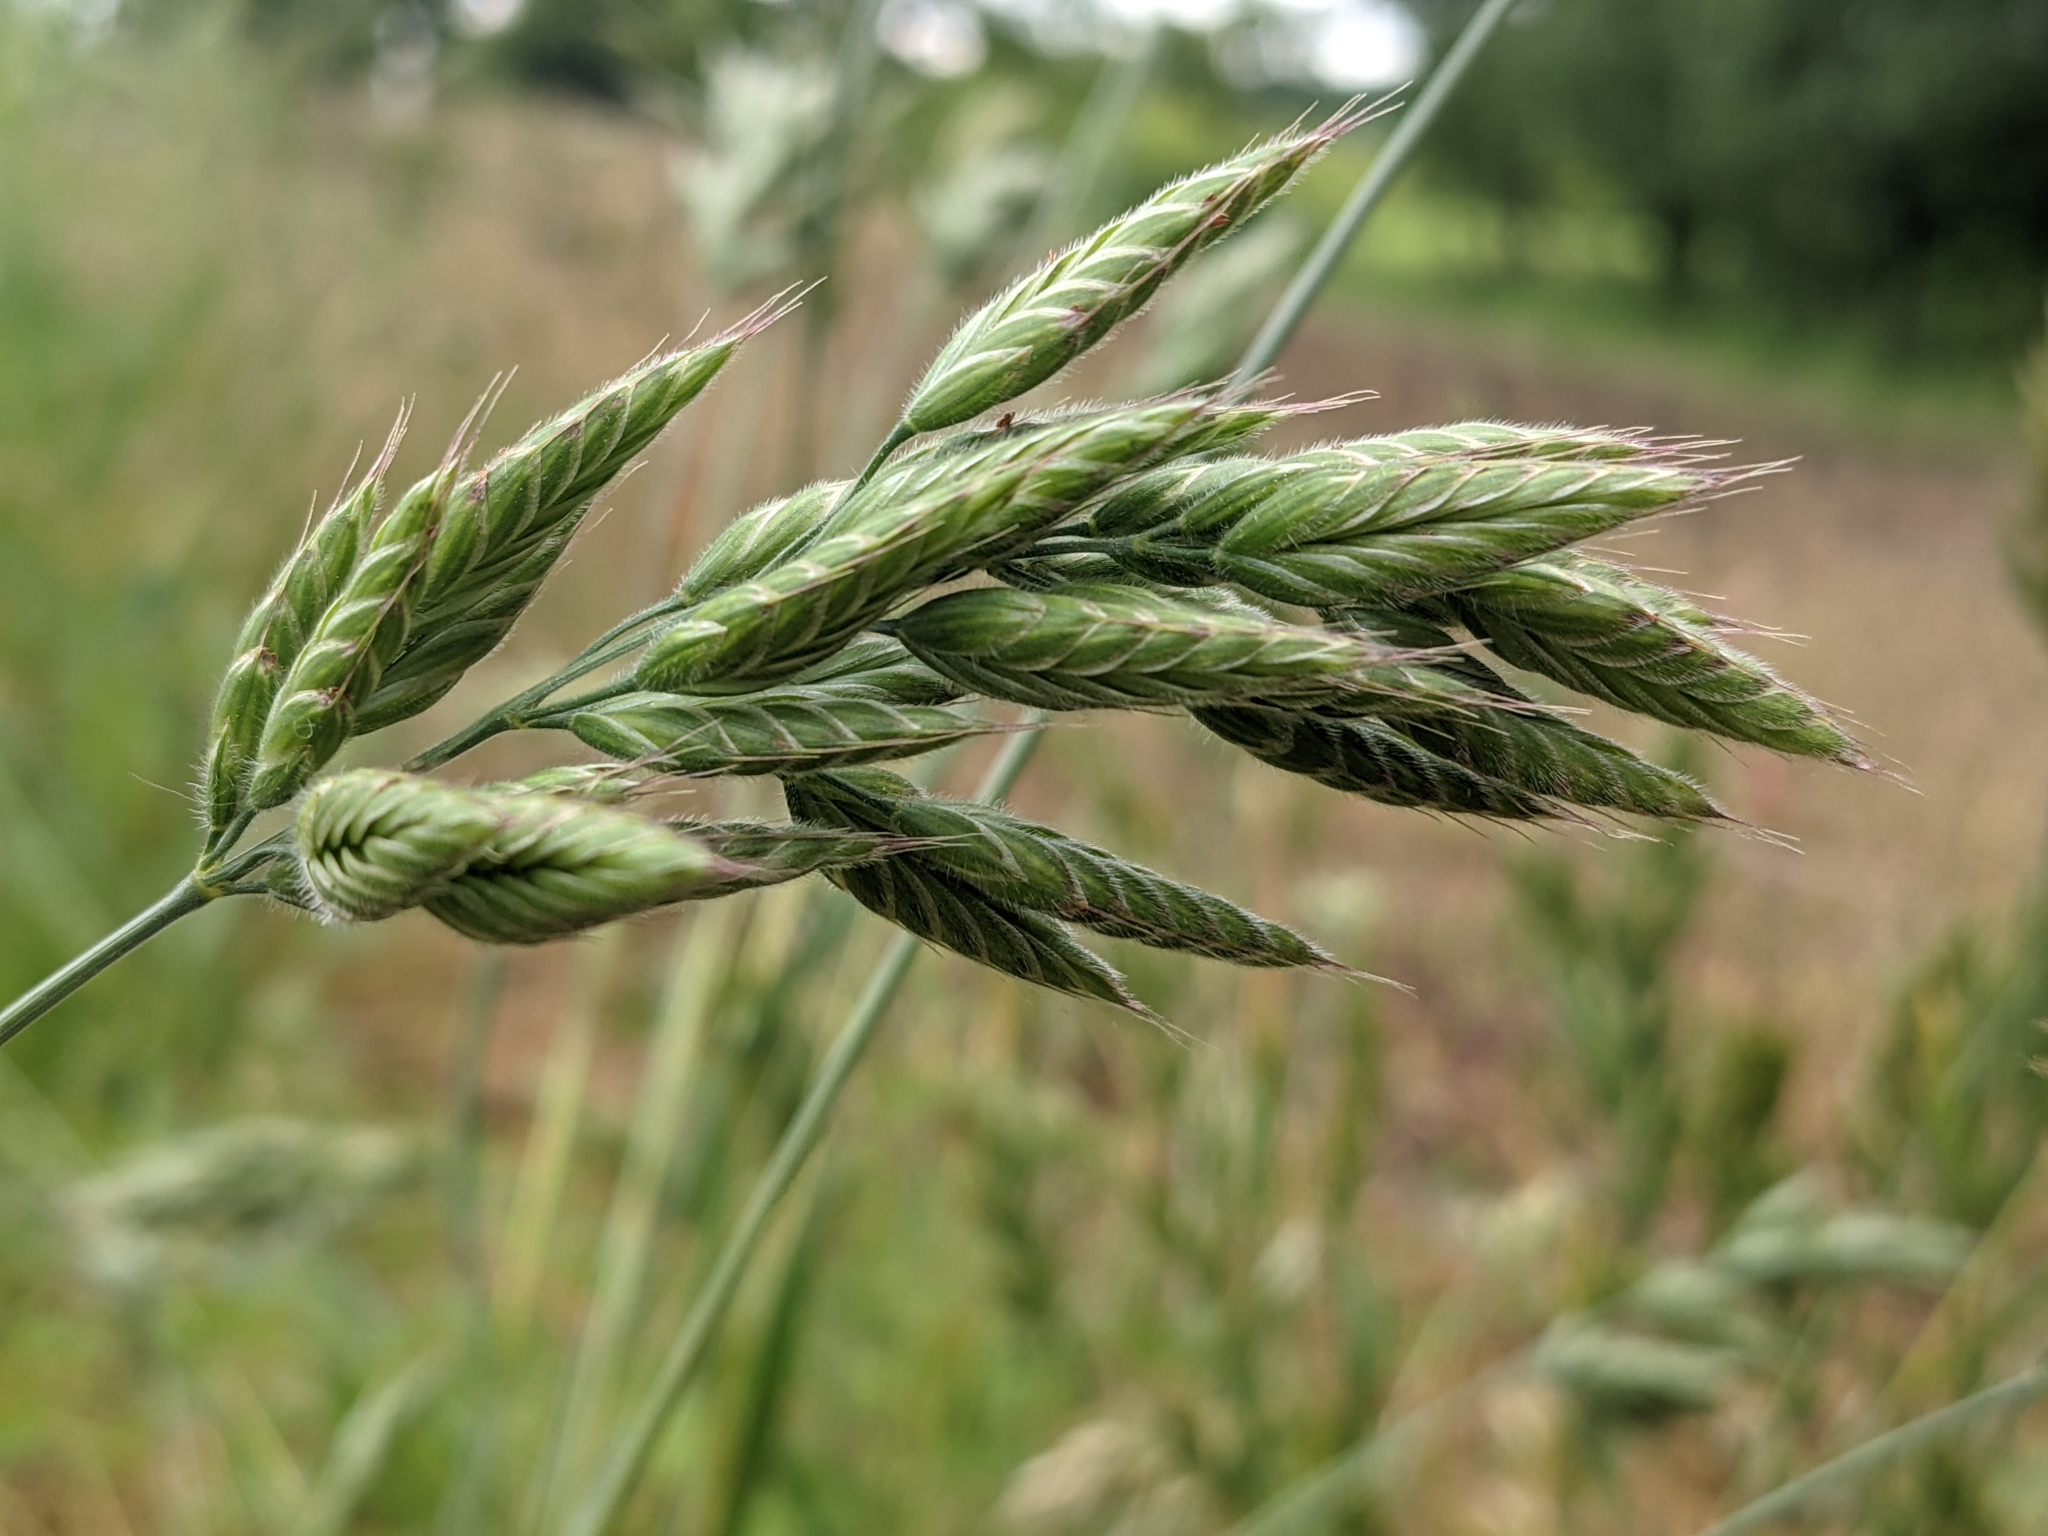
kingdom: Plantae
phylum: Tracheophyta
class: Liliopsida
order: Poales
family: Poaceae
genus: Bromus
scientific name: Bromus hordeaceus
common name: Soft brome
